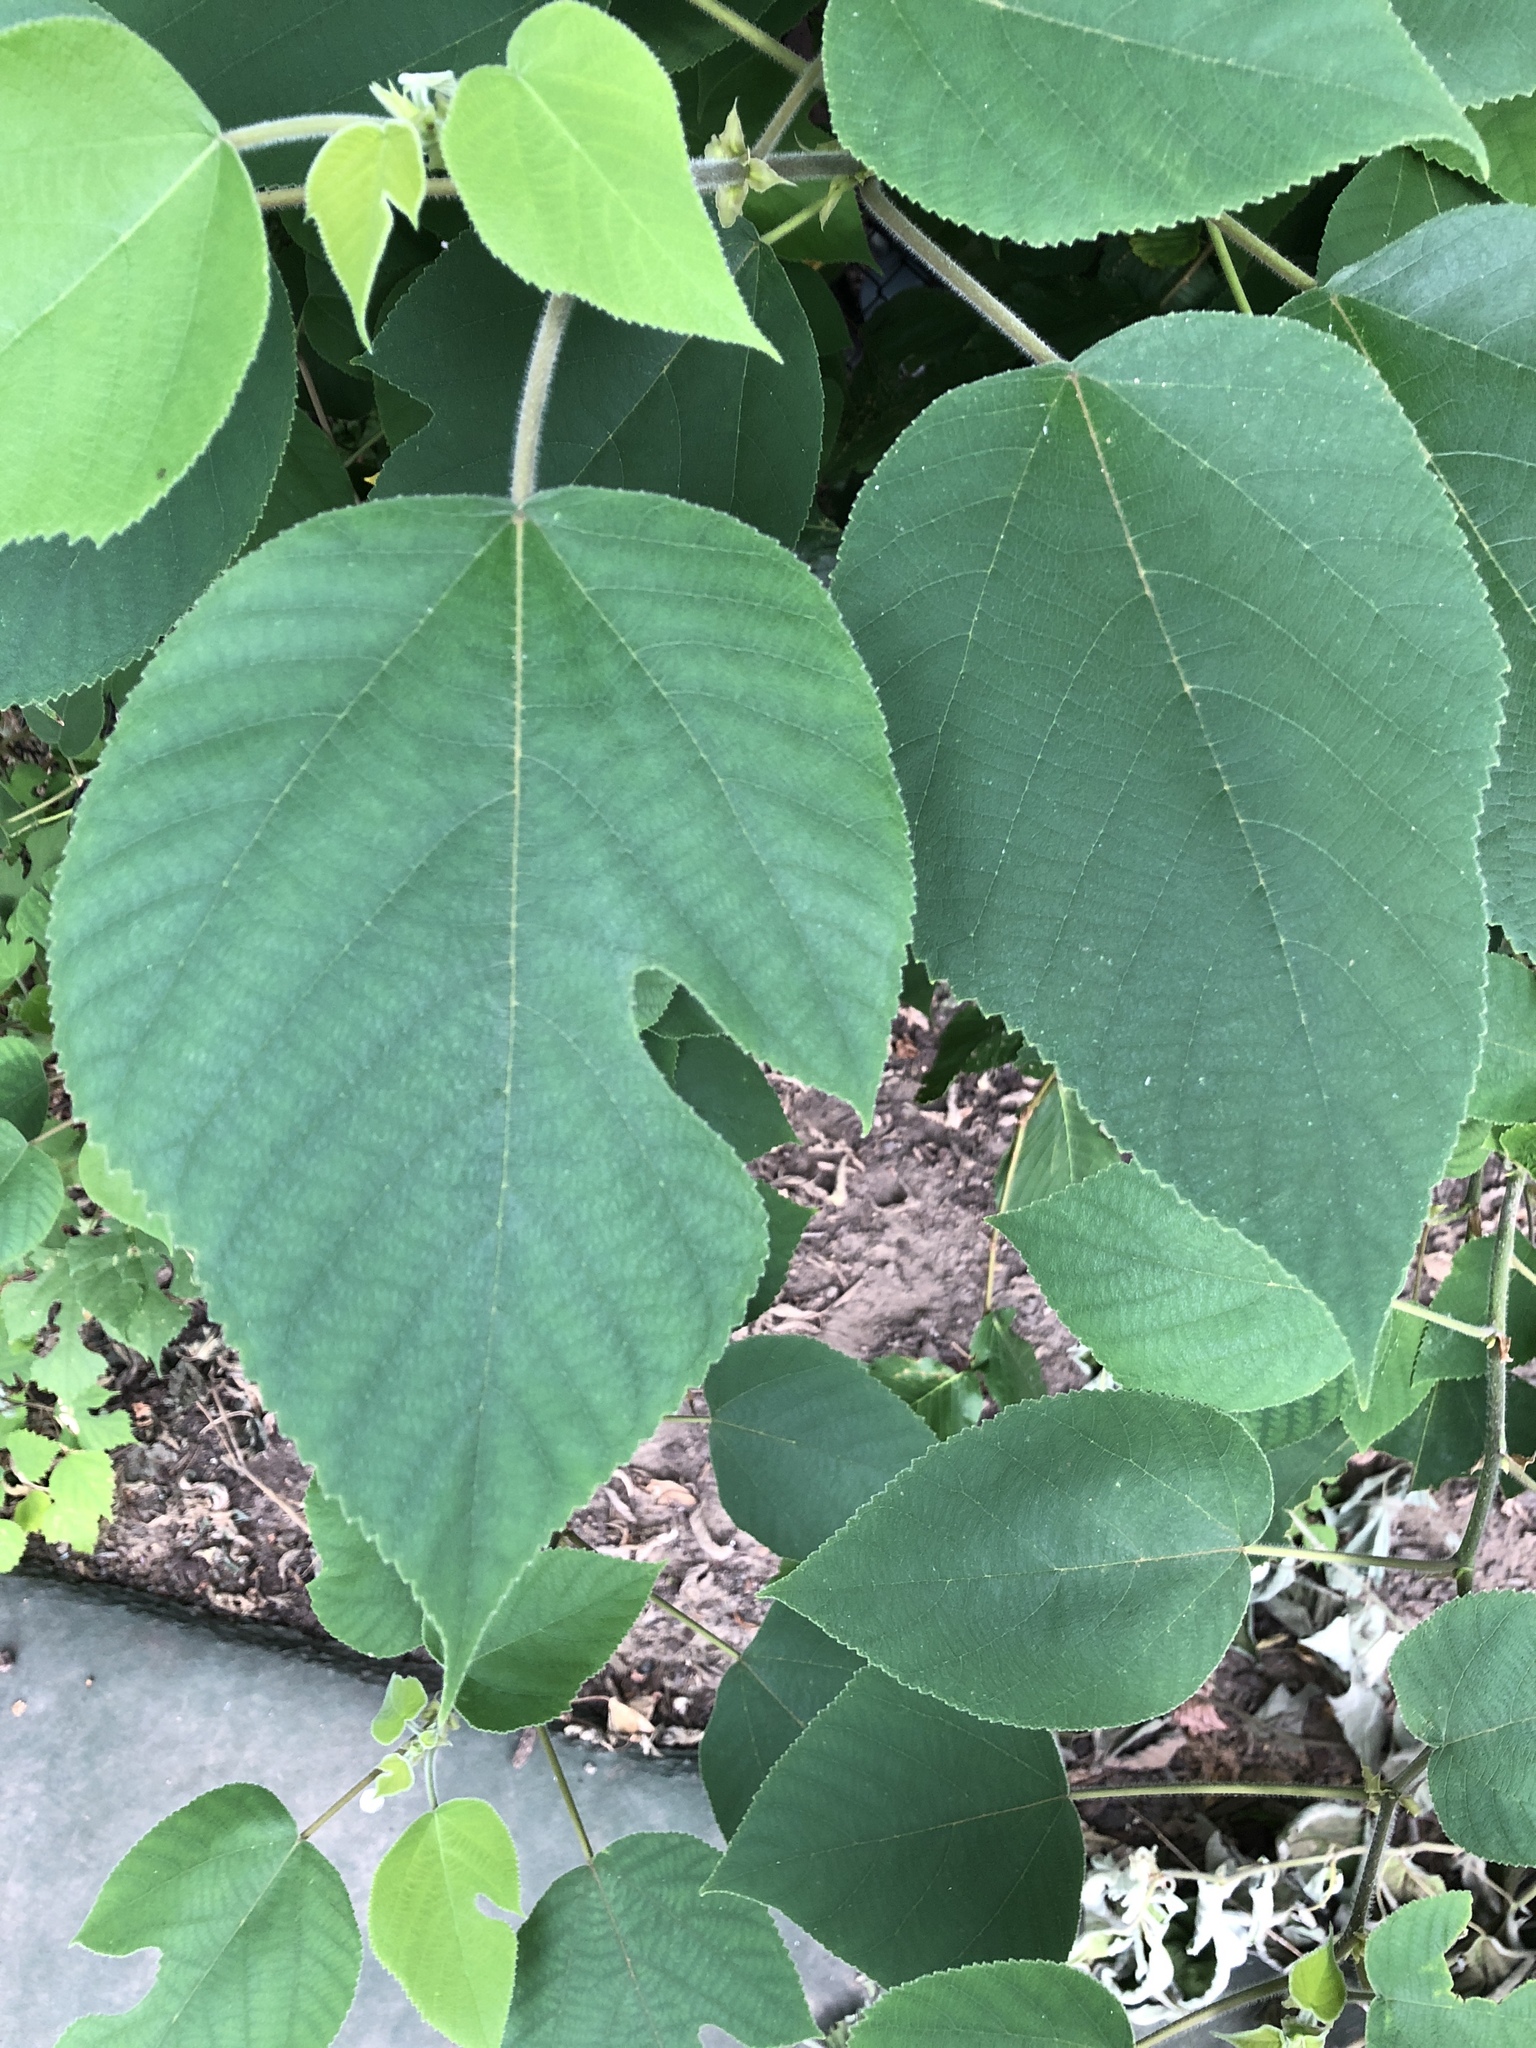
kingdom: Plantae
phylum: Tracheophyta
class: Magnoliopsida
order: Rosales
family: Moraceae
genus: Broussonetia
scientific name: Broussonetia papyrifera
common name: Paper mulberry
